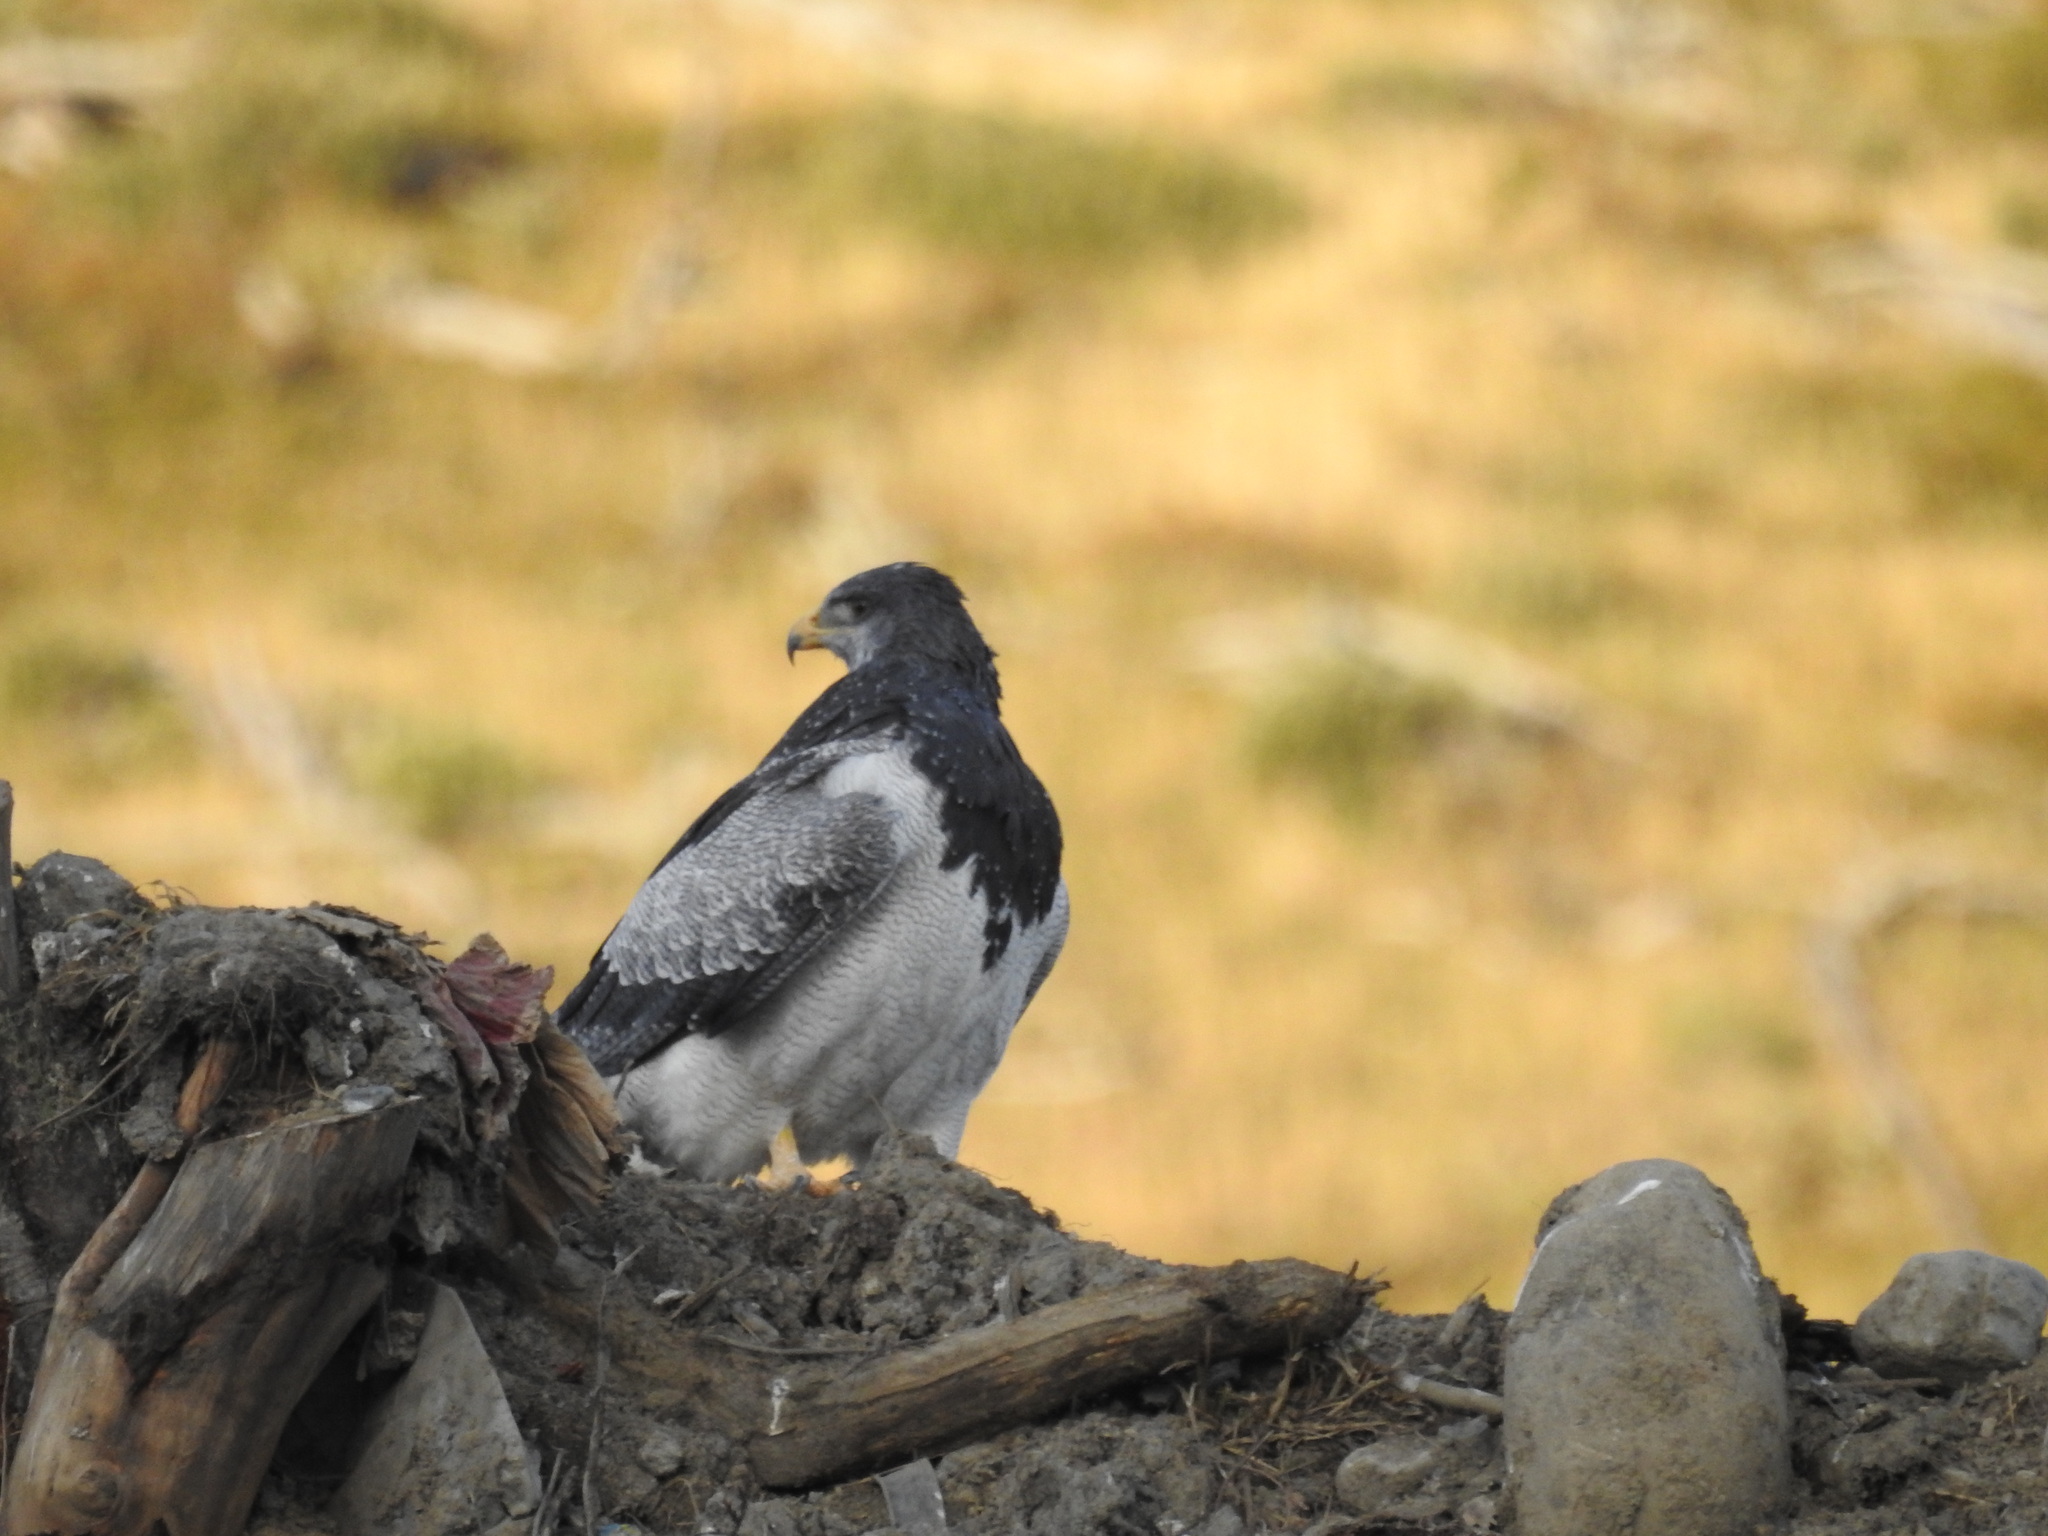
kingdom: Animalia
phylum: Chordata
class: Aves
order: Accipitriformes
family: Accipitridae
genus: Geranoaetus
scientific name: Geranoaetus melanoleucus
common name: Black-chested buzzard-eagle
